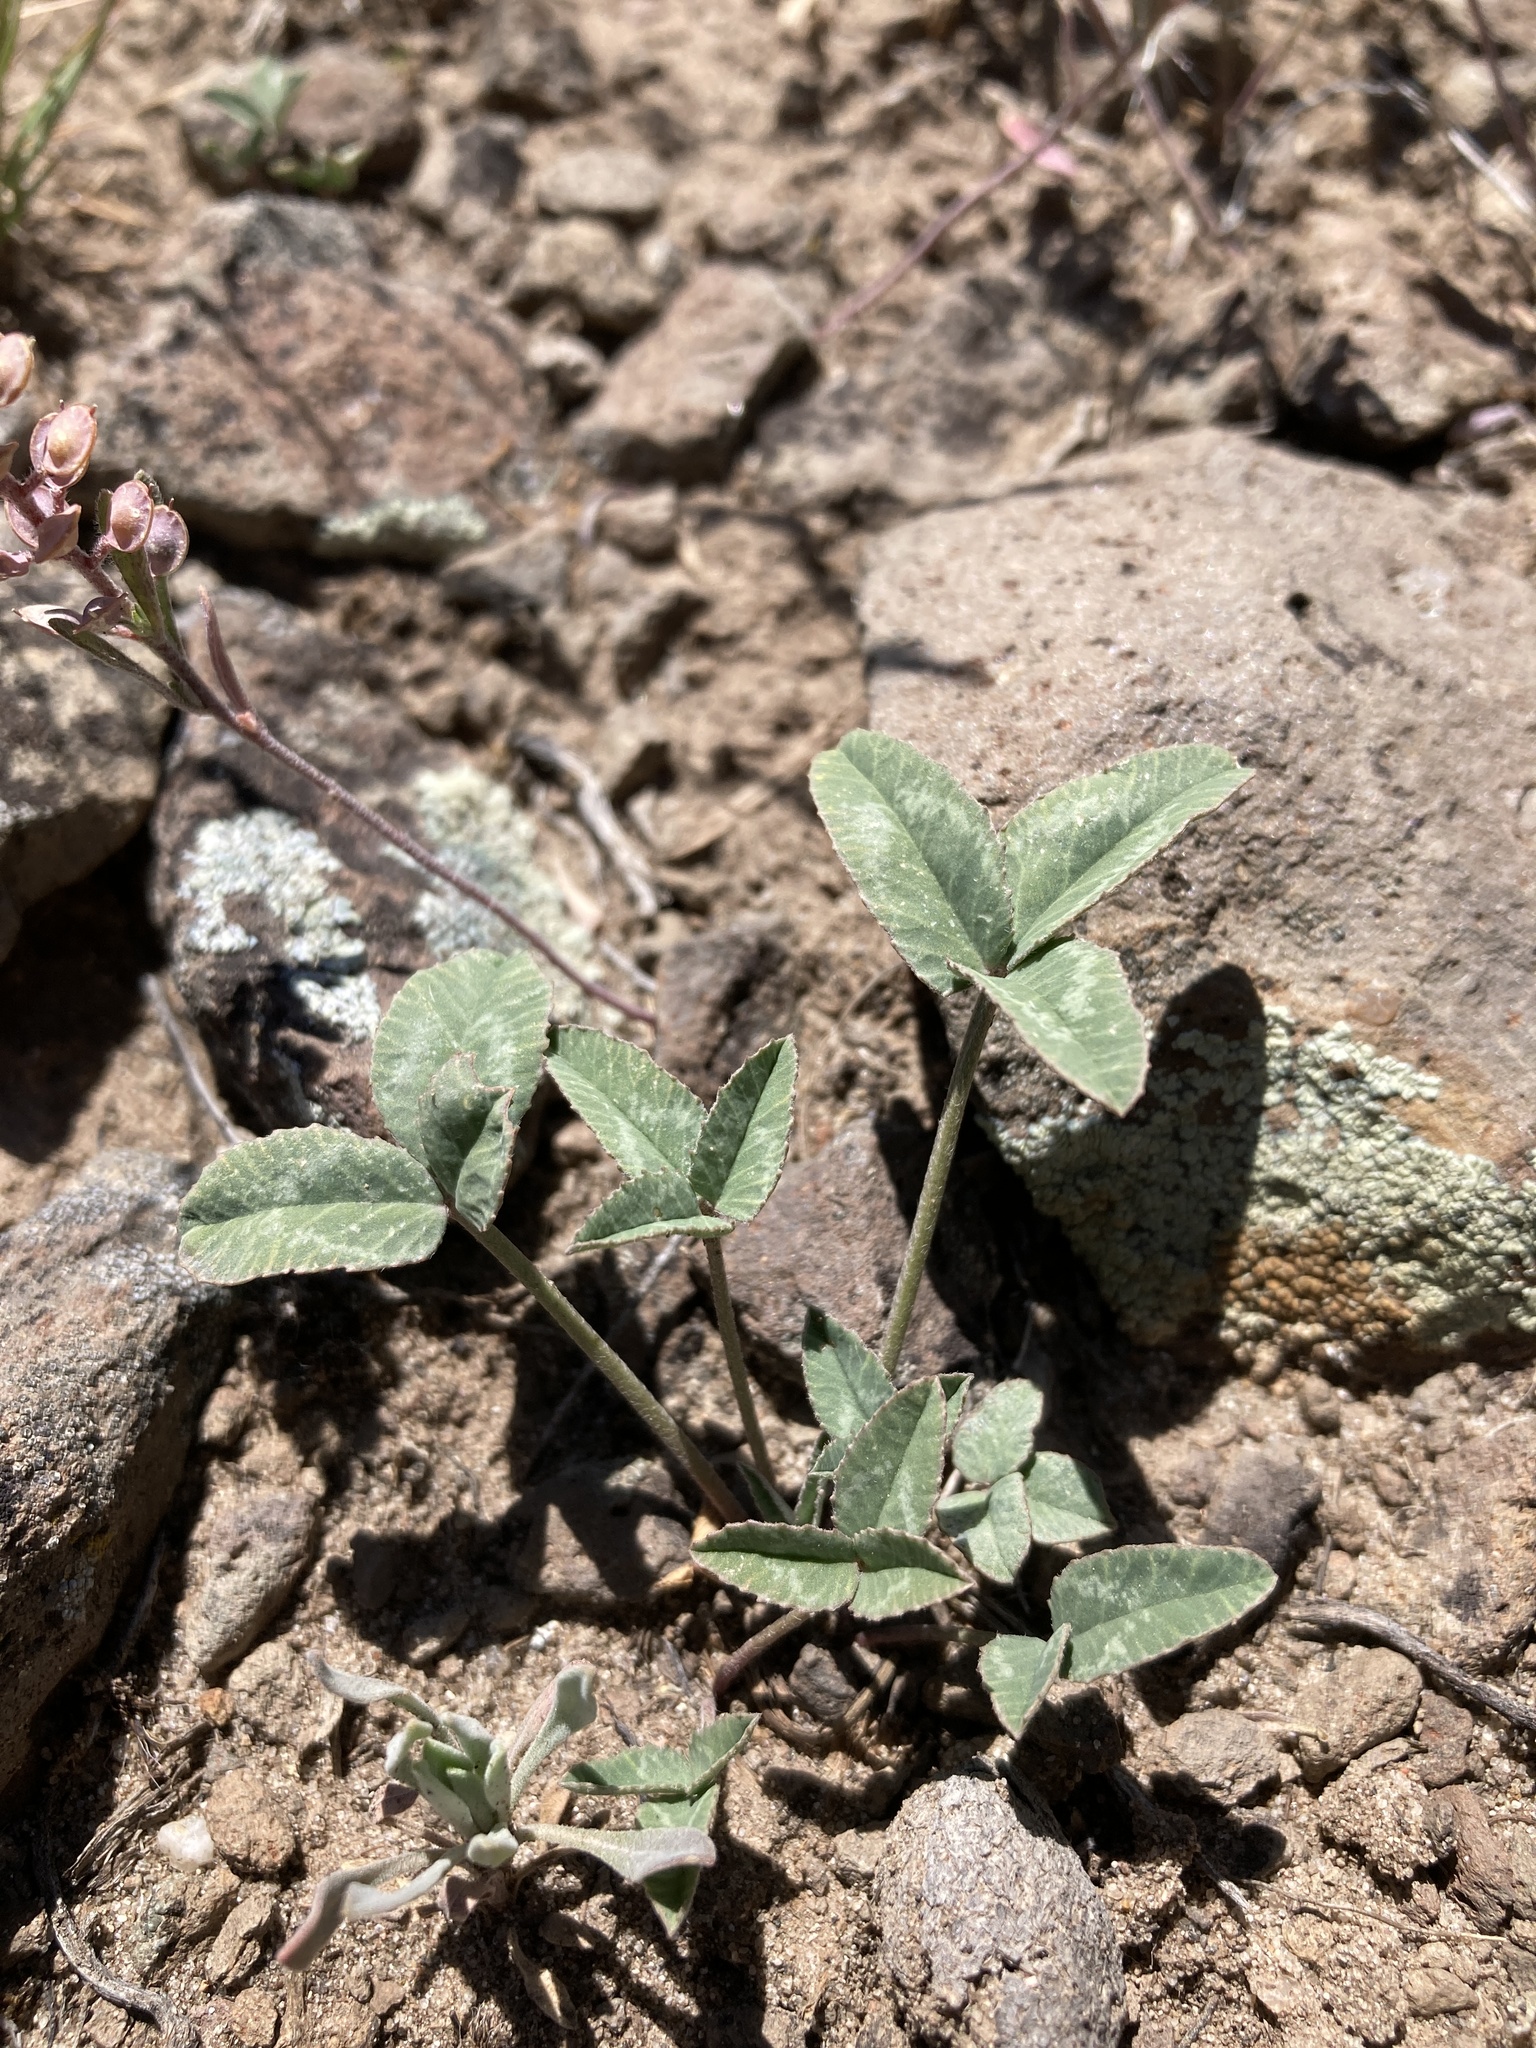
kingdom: Plantae
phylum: Tracheophyta
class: Magnoliopsida
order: Fabales
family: Fabaceae
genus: Trifolium
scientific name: Trifolium gymnocarpon
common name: Tufted clover
